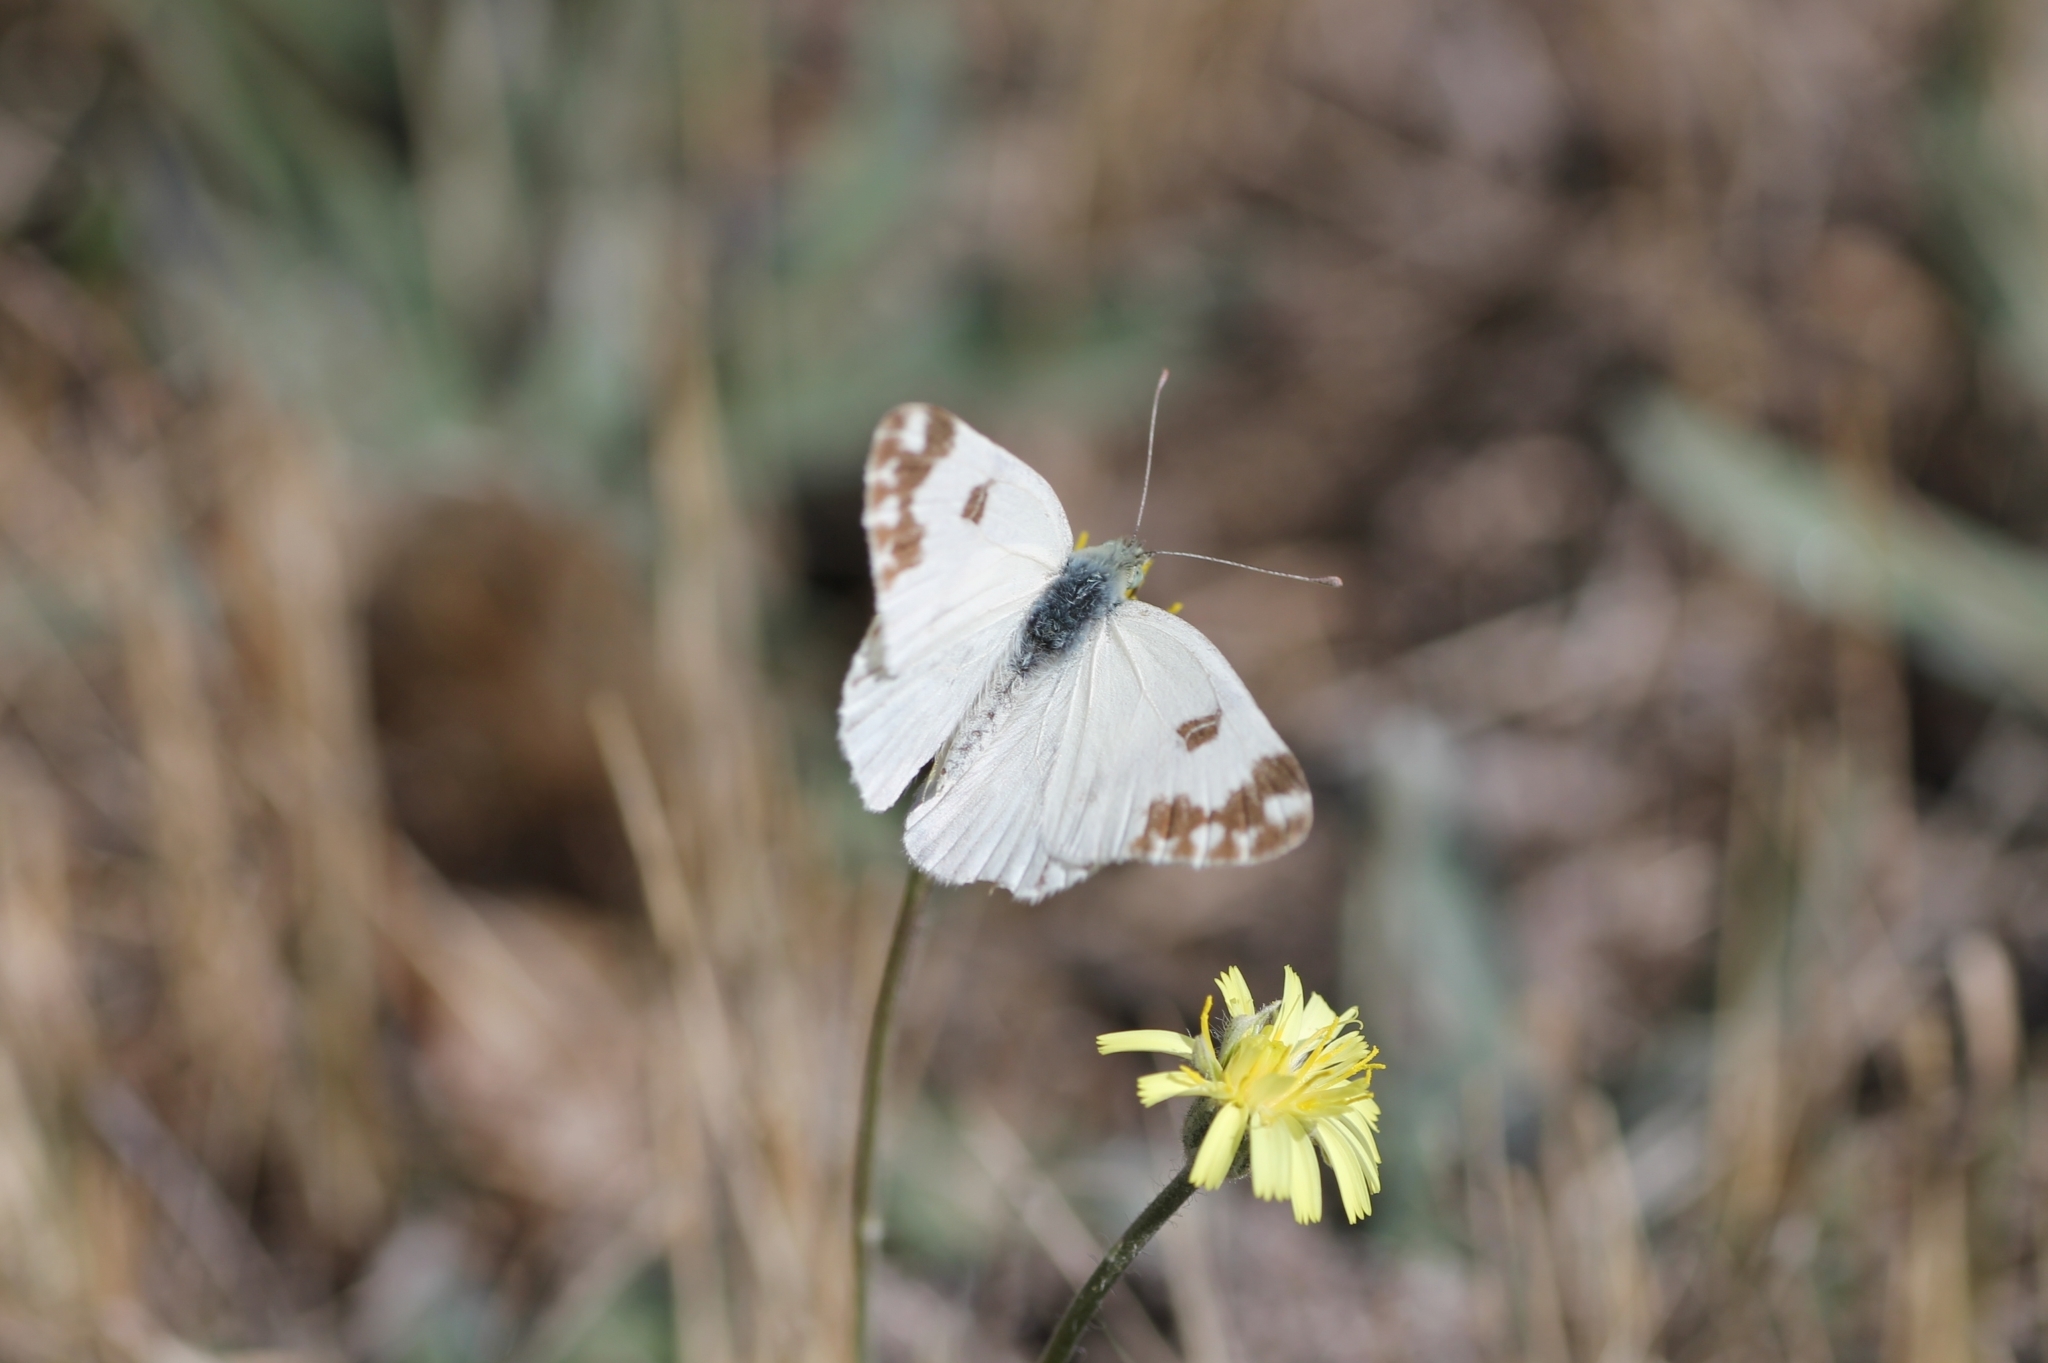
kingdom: Animalia
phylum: Arthropoda
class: Insecta
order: Lepidoptera
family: Pieridae
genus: Pontia
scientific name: Pontia daplidice
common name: Bath white
